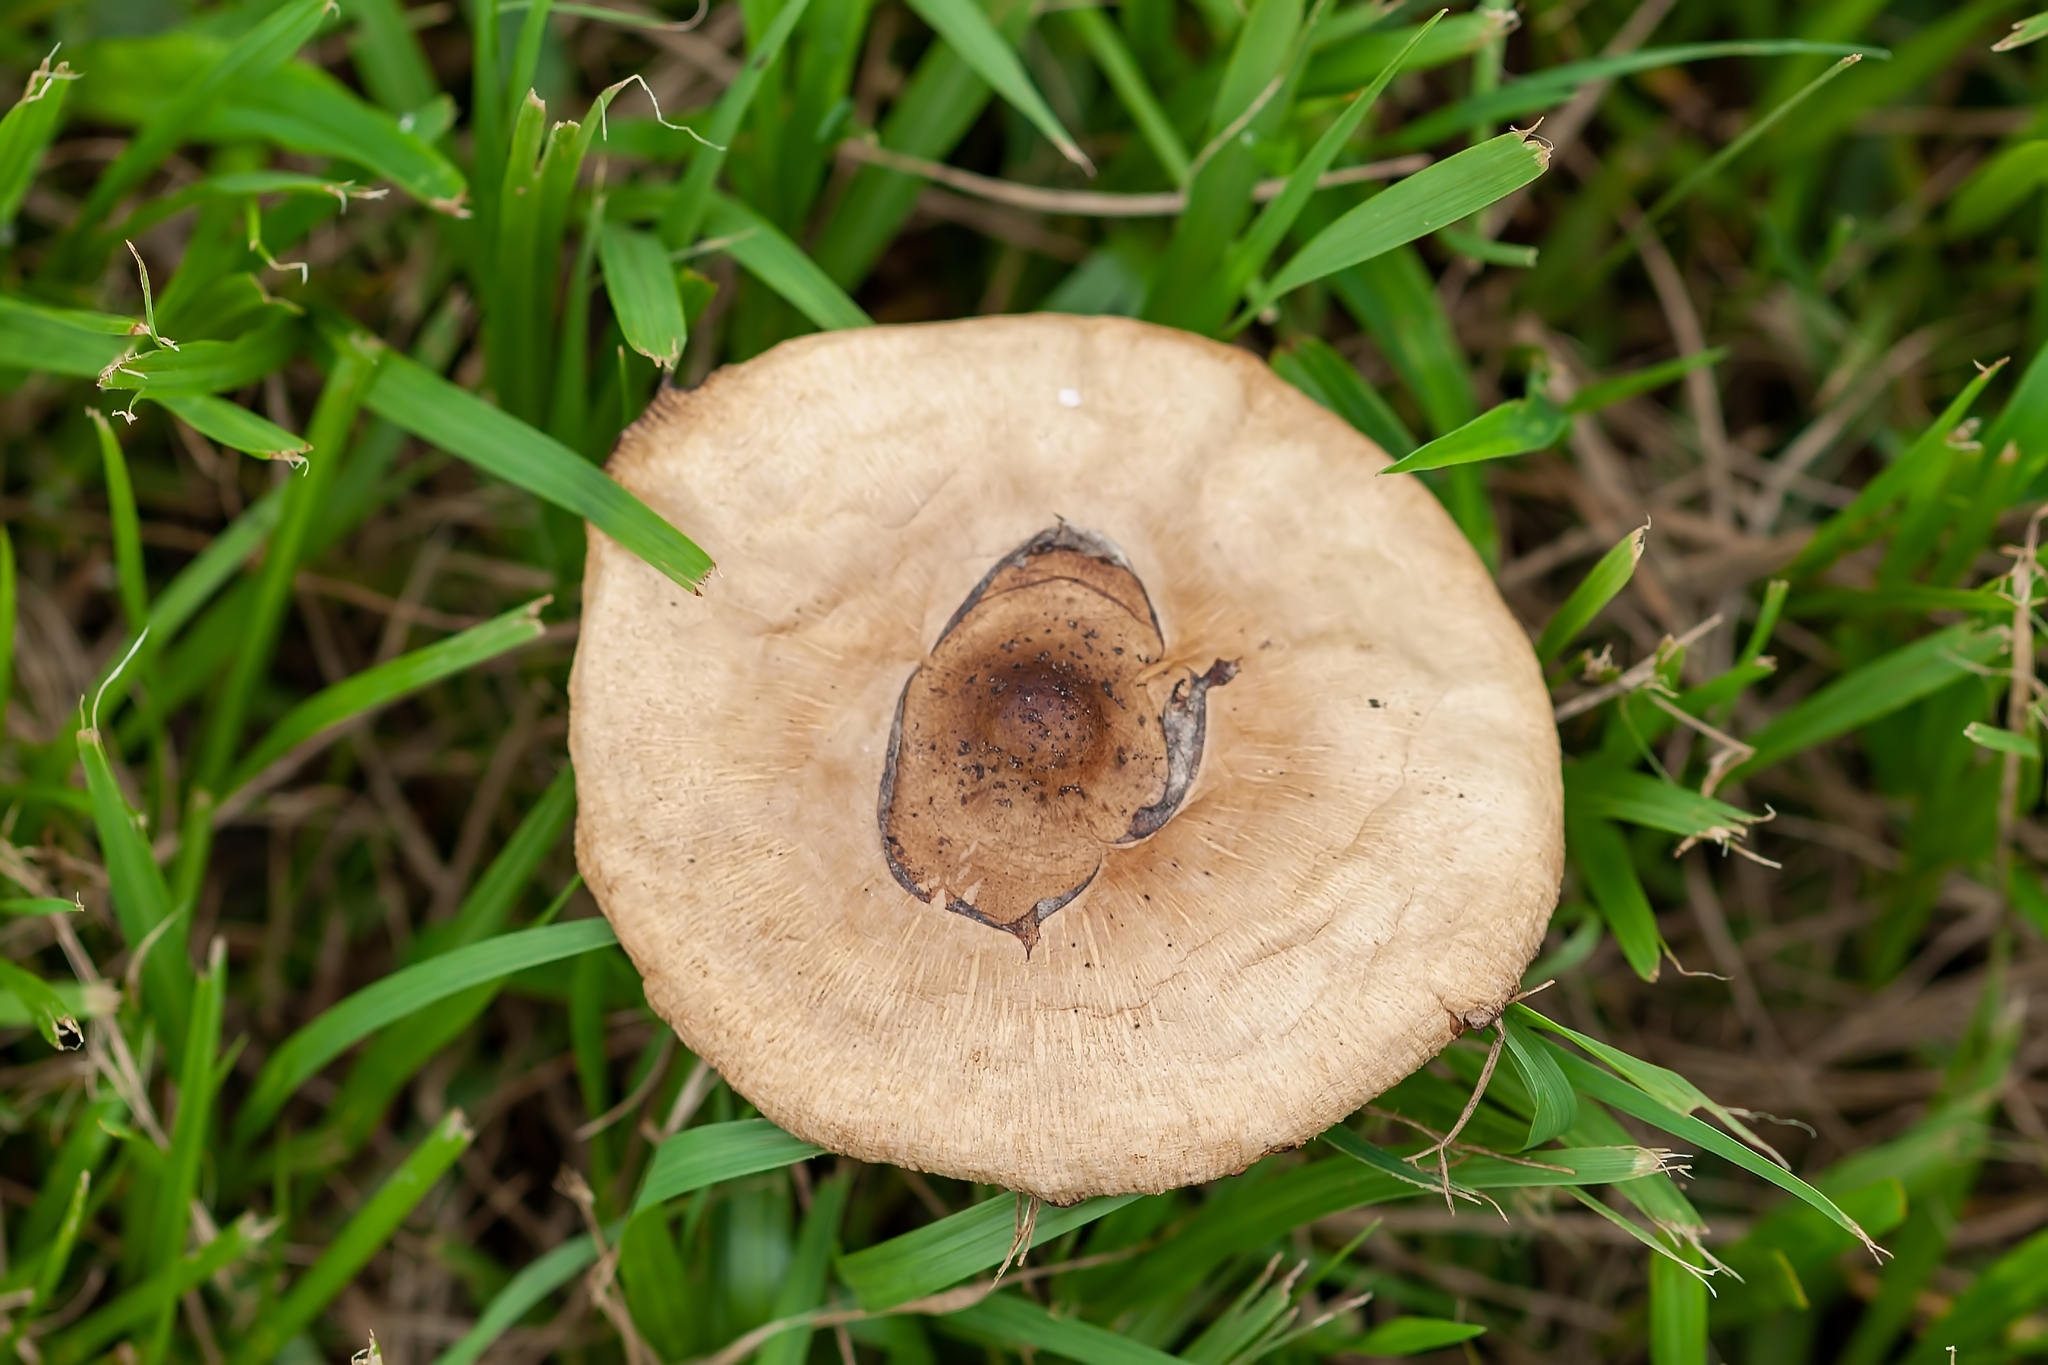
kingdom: Fungi
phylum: Basidiomycota
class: Agaricomycetes
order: Agaricales
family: Agaricaceae
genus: Chlorophyllum
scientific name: Chlorophyllum molybdites
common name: False parasol
